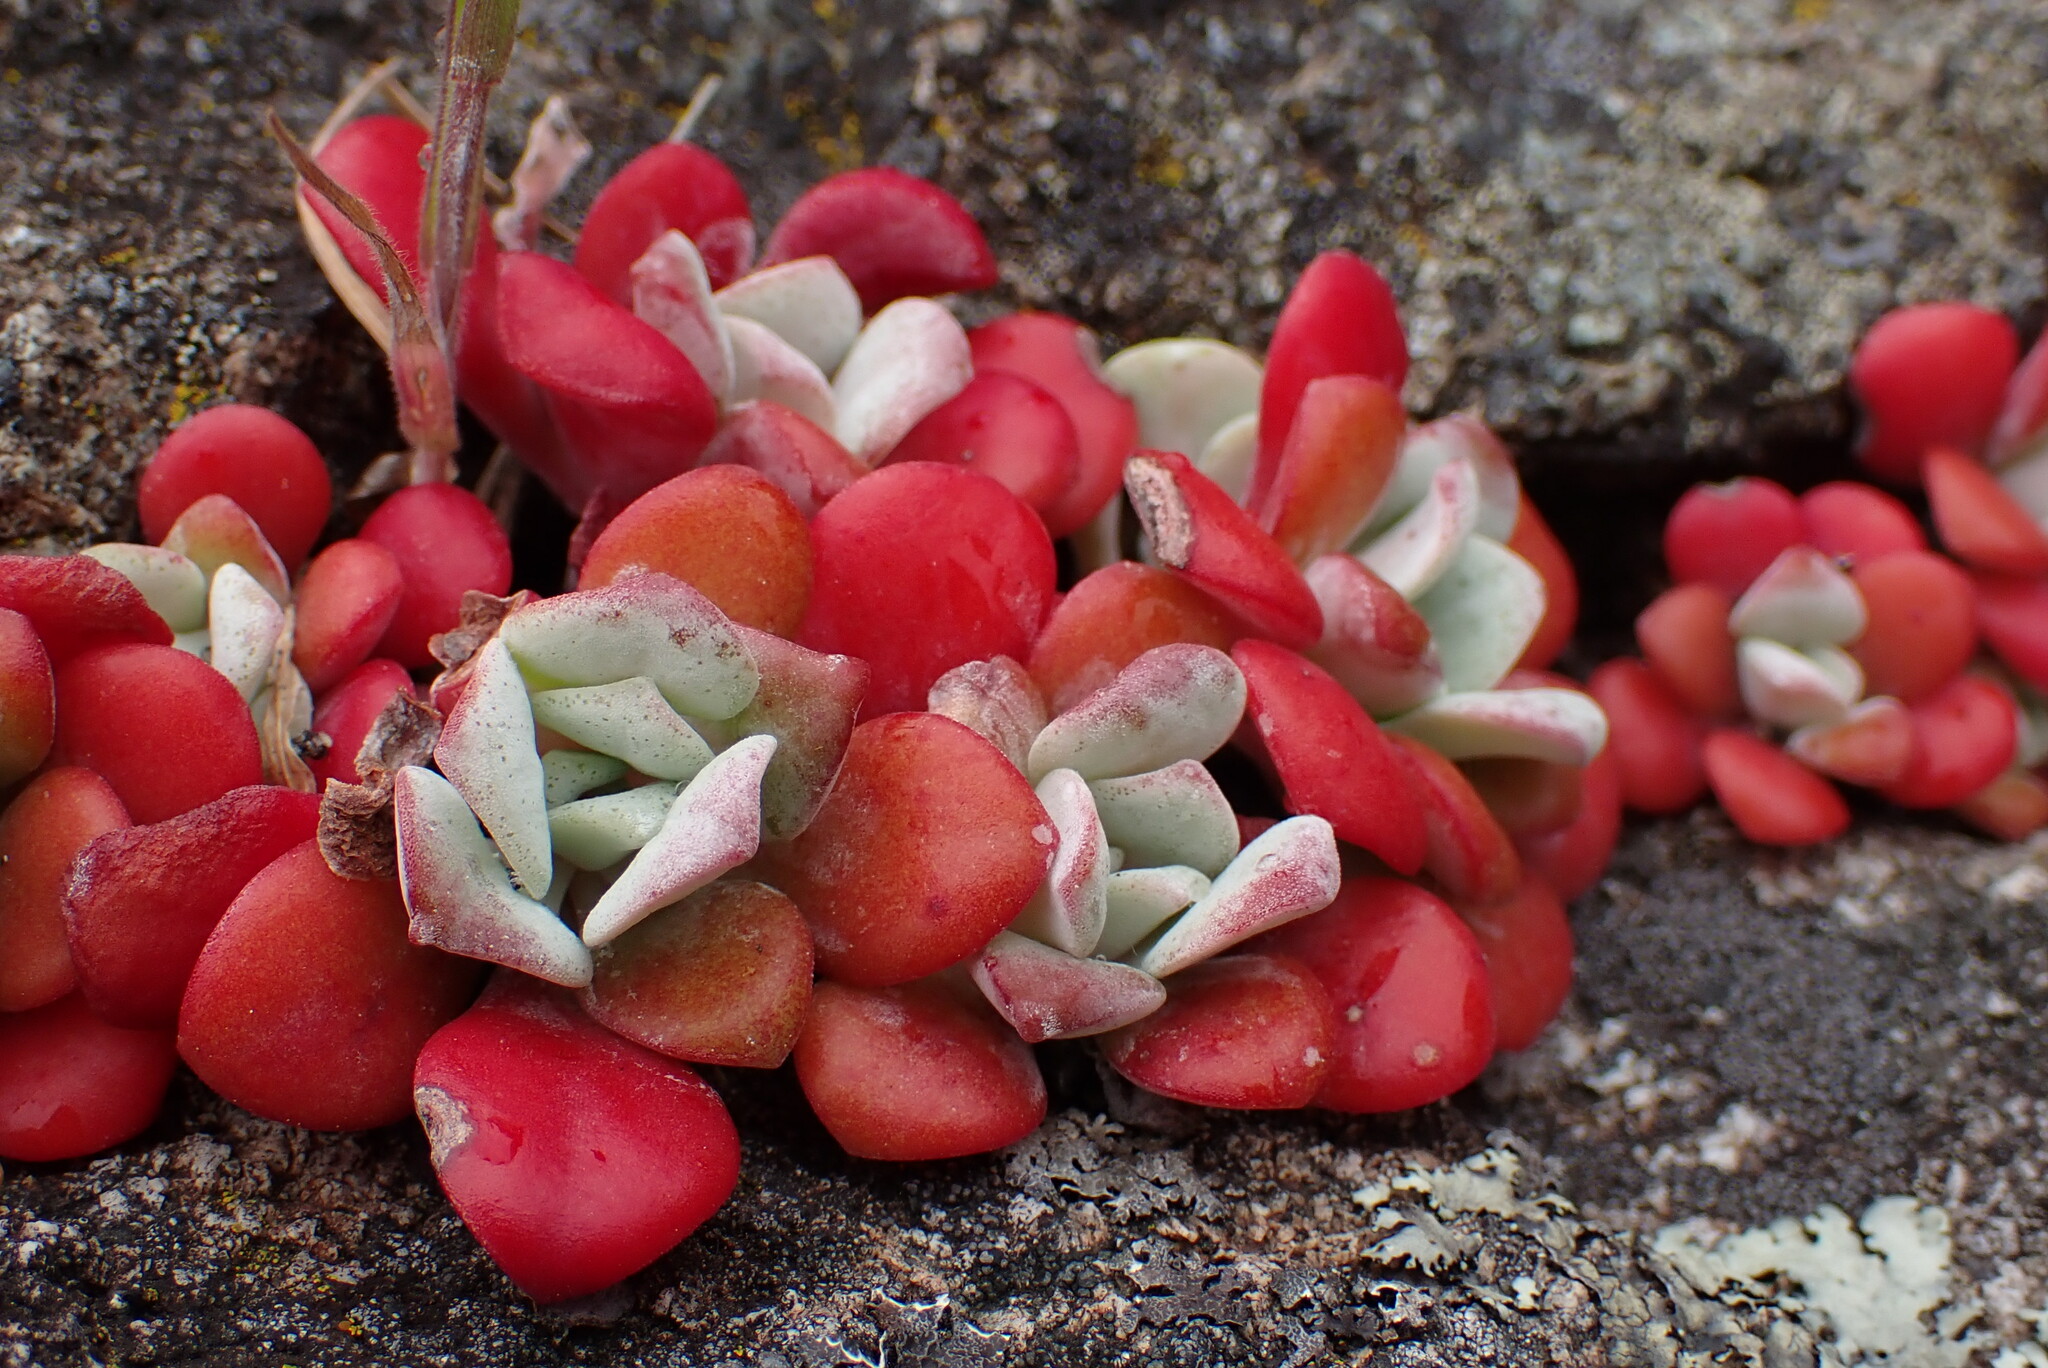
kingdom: Plantae
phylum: Tracheophyta
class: Magnoliopsida
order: Saxifragales
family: Crassulaceae
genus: Sedum
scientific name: Sedum spathulifolium
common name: Colorado stonecrop
